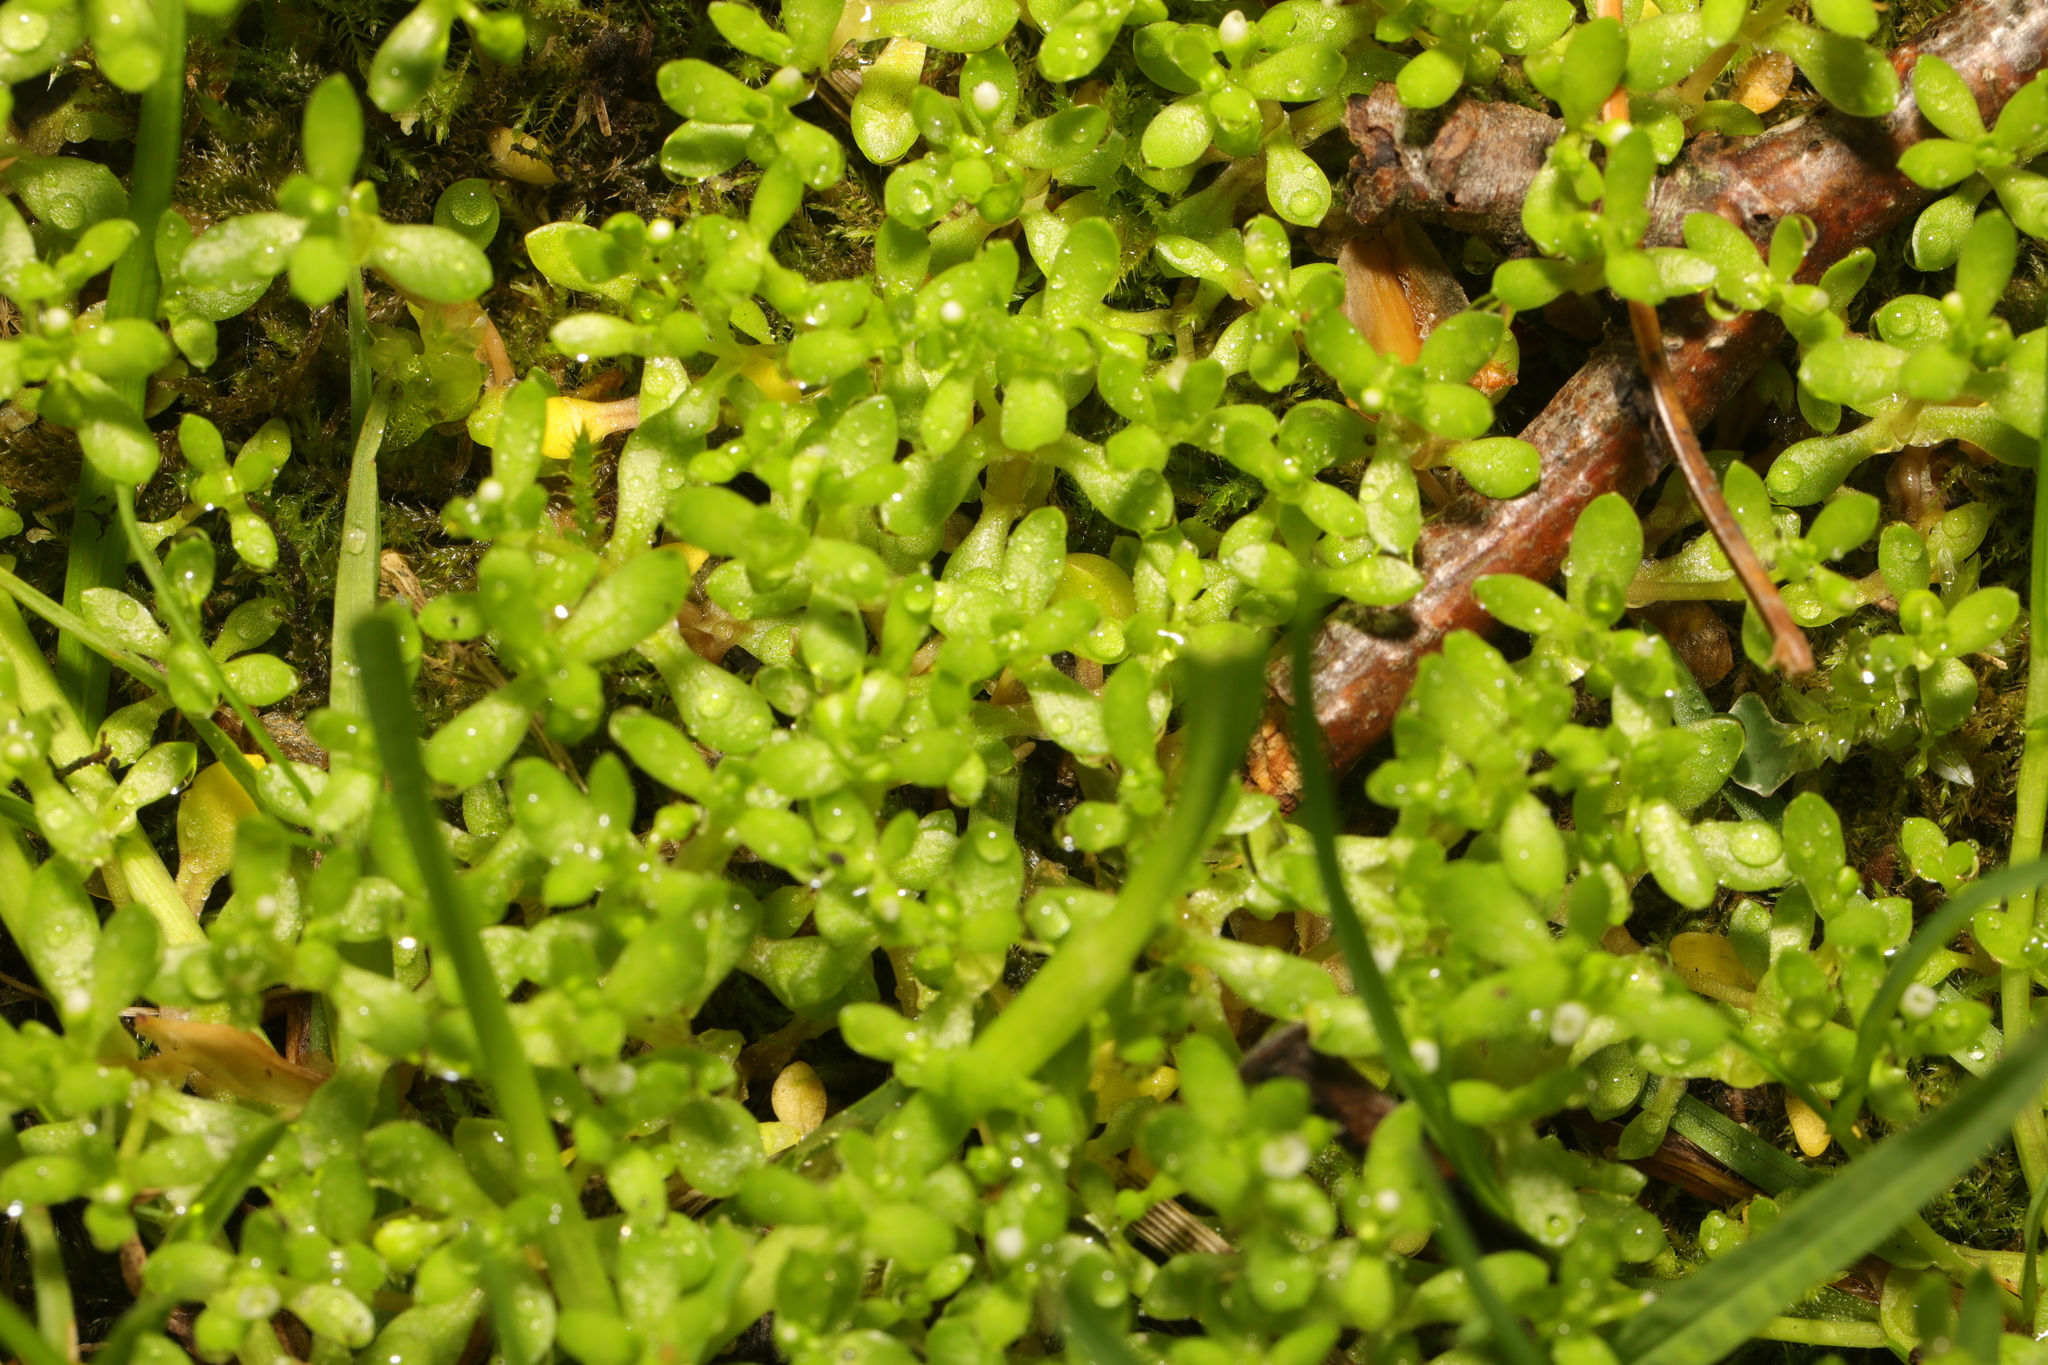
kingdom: Plantae
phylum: Tracheophyta
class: Magnoliopsida
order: Caryophyllales
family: Montiaceae
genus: Montia
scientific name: Montia fontana
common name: Blinks
